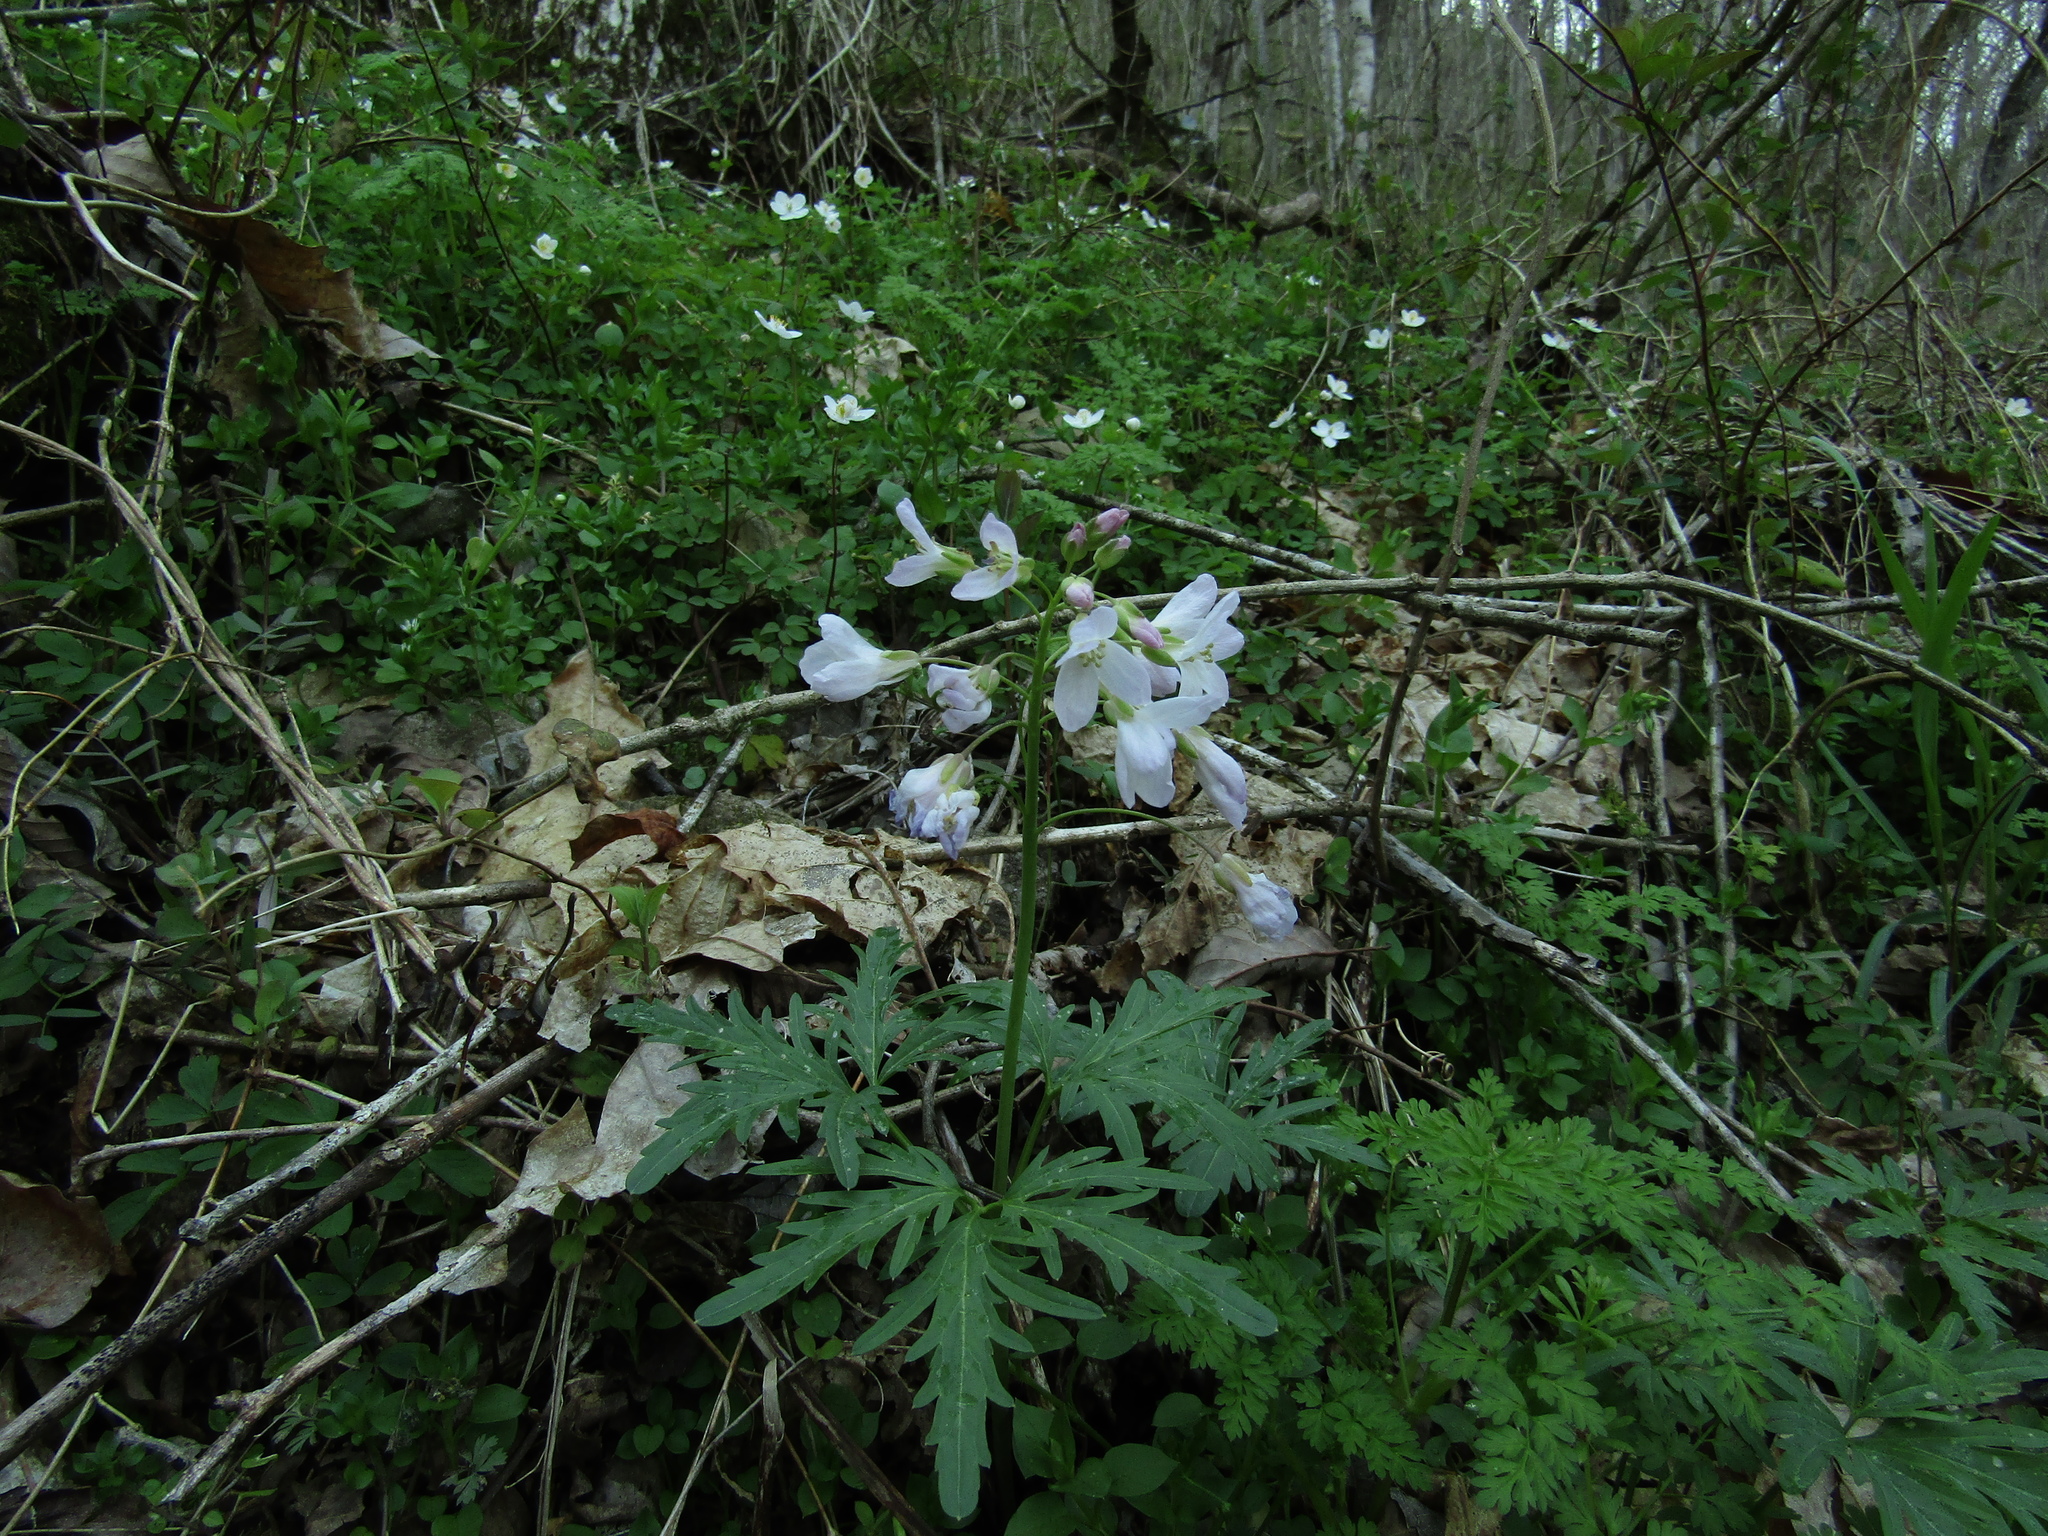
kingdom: Plantae
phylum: Tracheophyta
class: Magnoliopsida
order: Brassicales
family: Brassicaceae
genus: Cardamine
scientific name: Cardamine concatenata
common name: Cut-leaf toothcup
